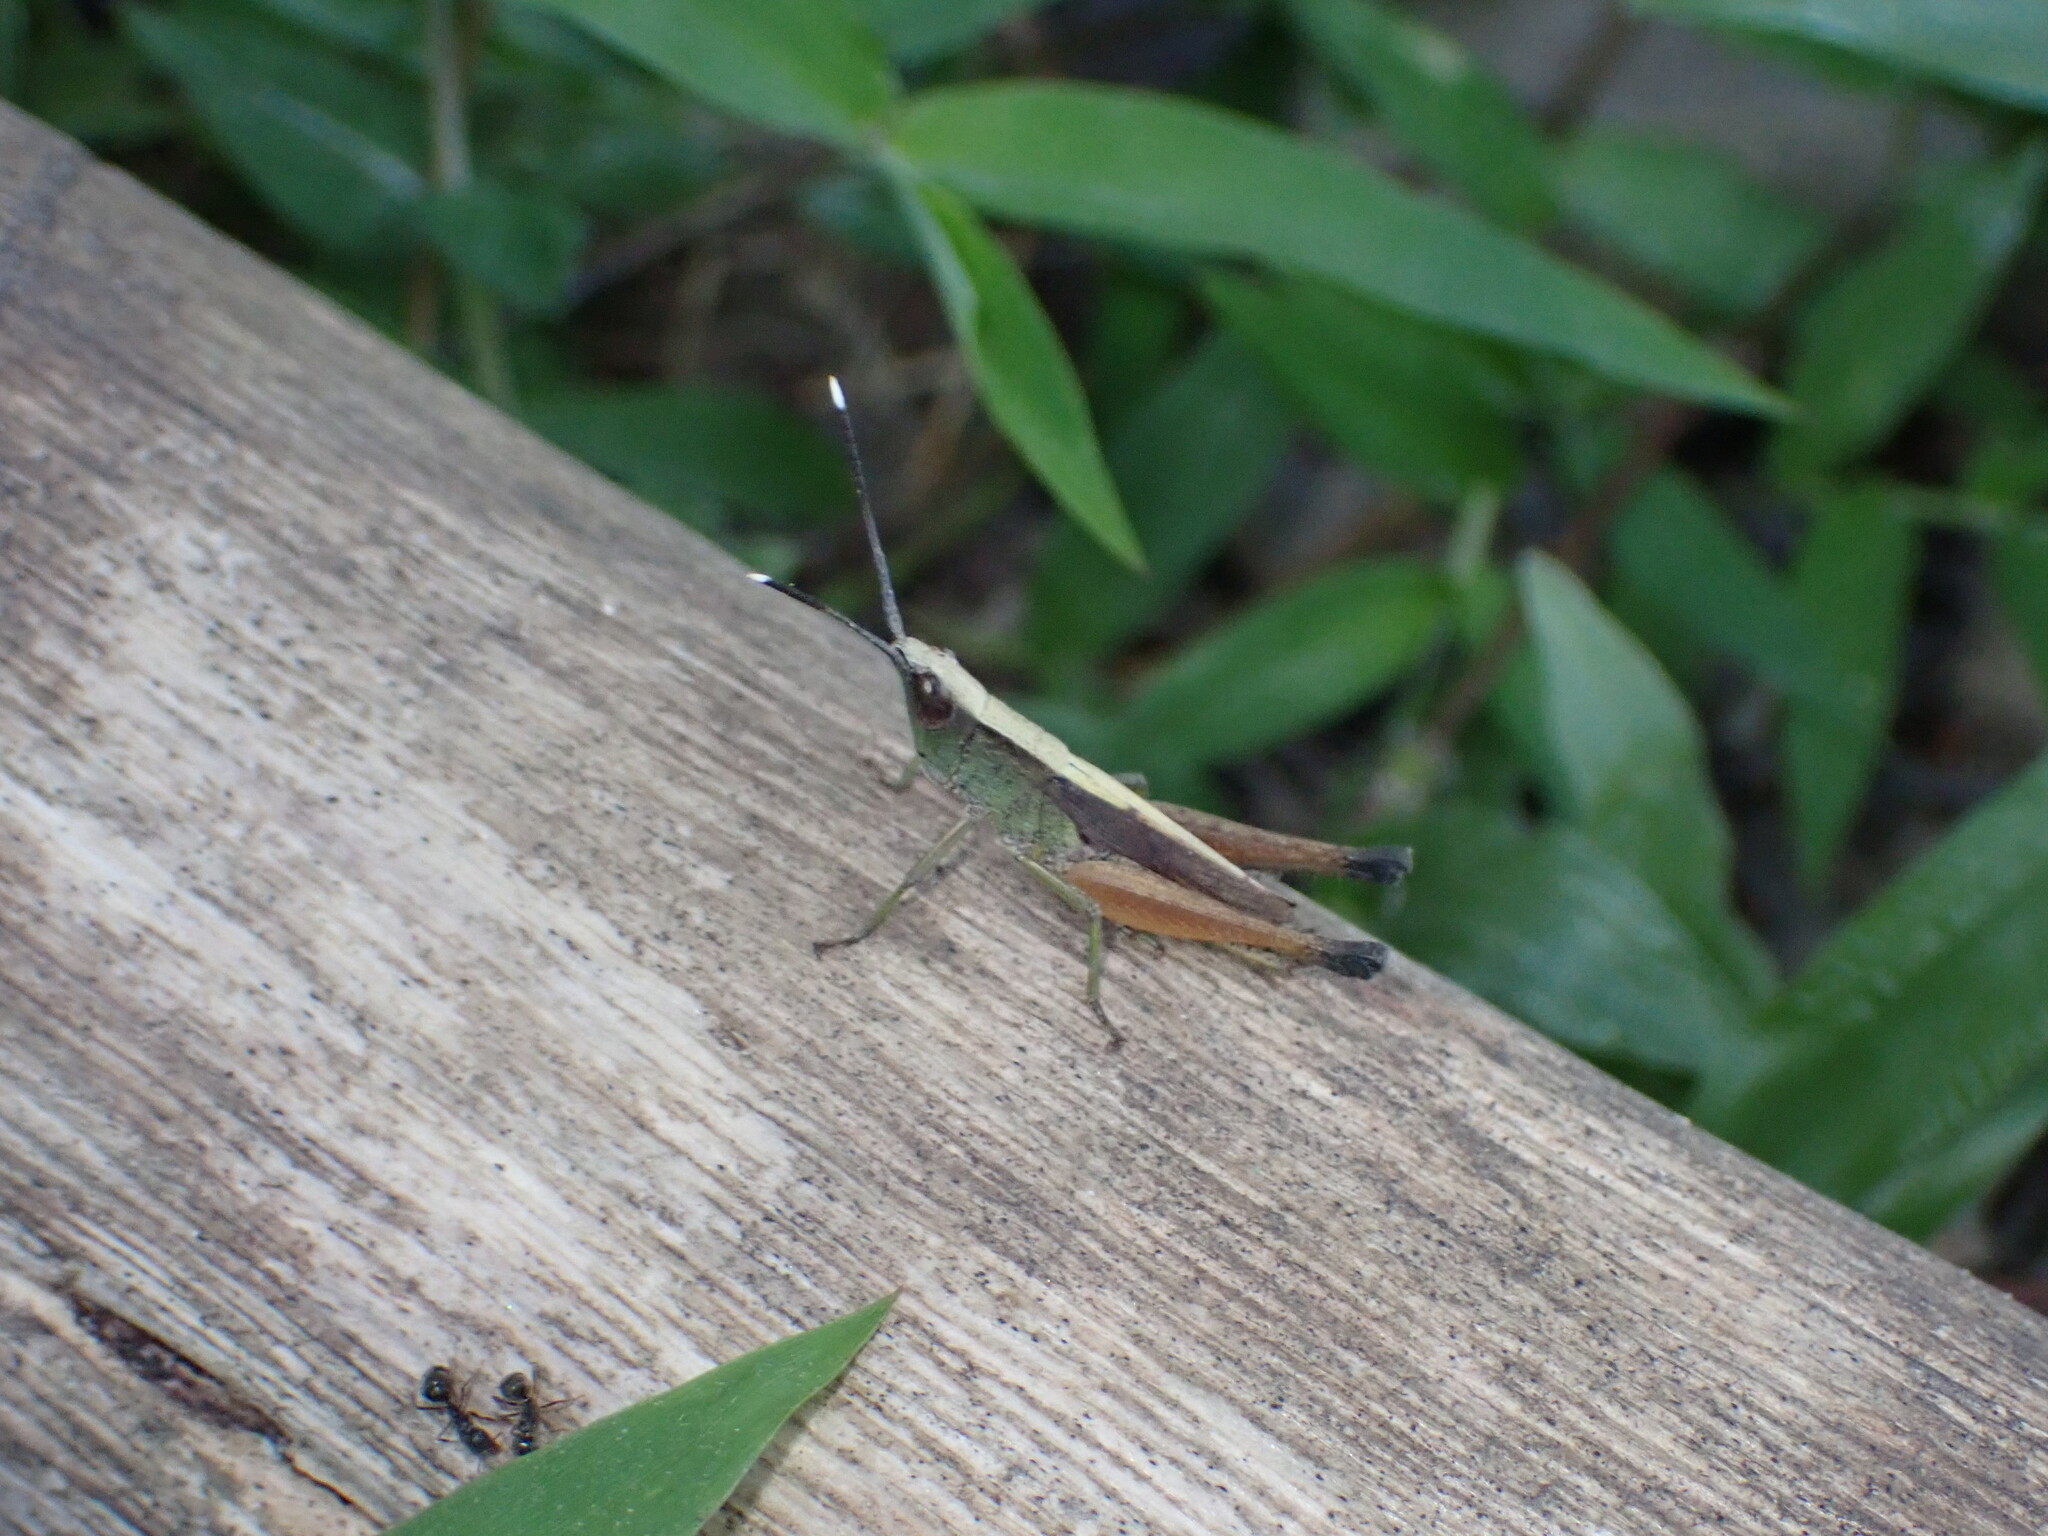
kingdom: Animalia
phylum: Arthropoda
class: Insecta
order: Orthoptera
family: Acrididae
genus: Phlaeoba
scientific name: Phlaeoba antennata
